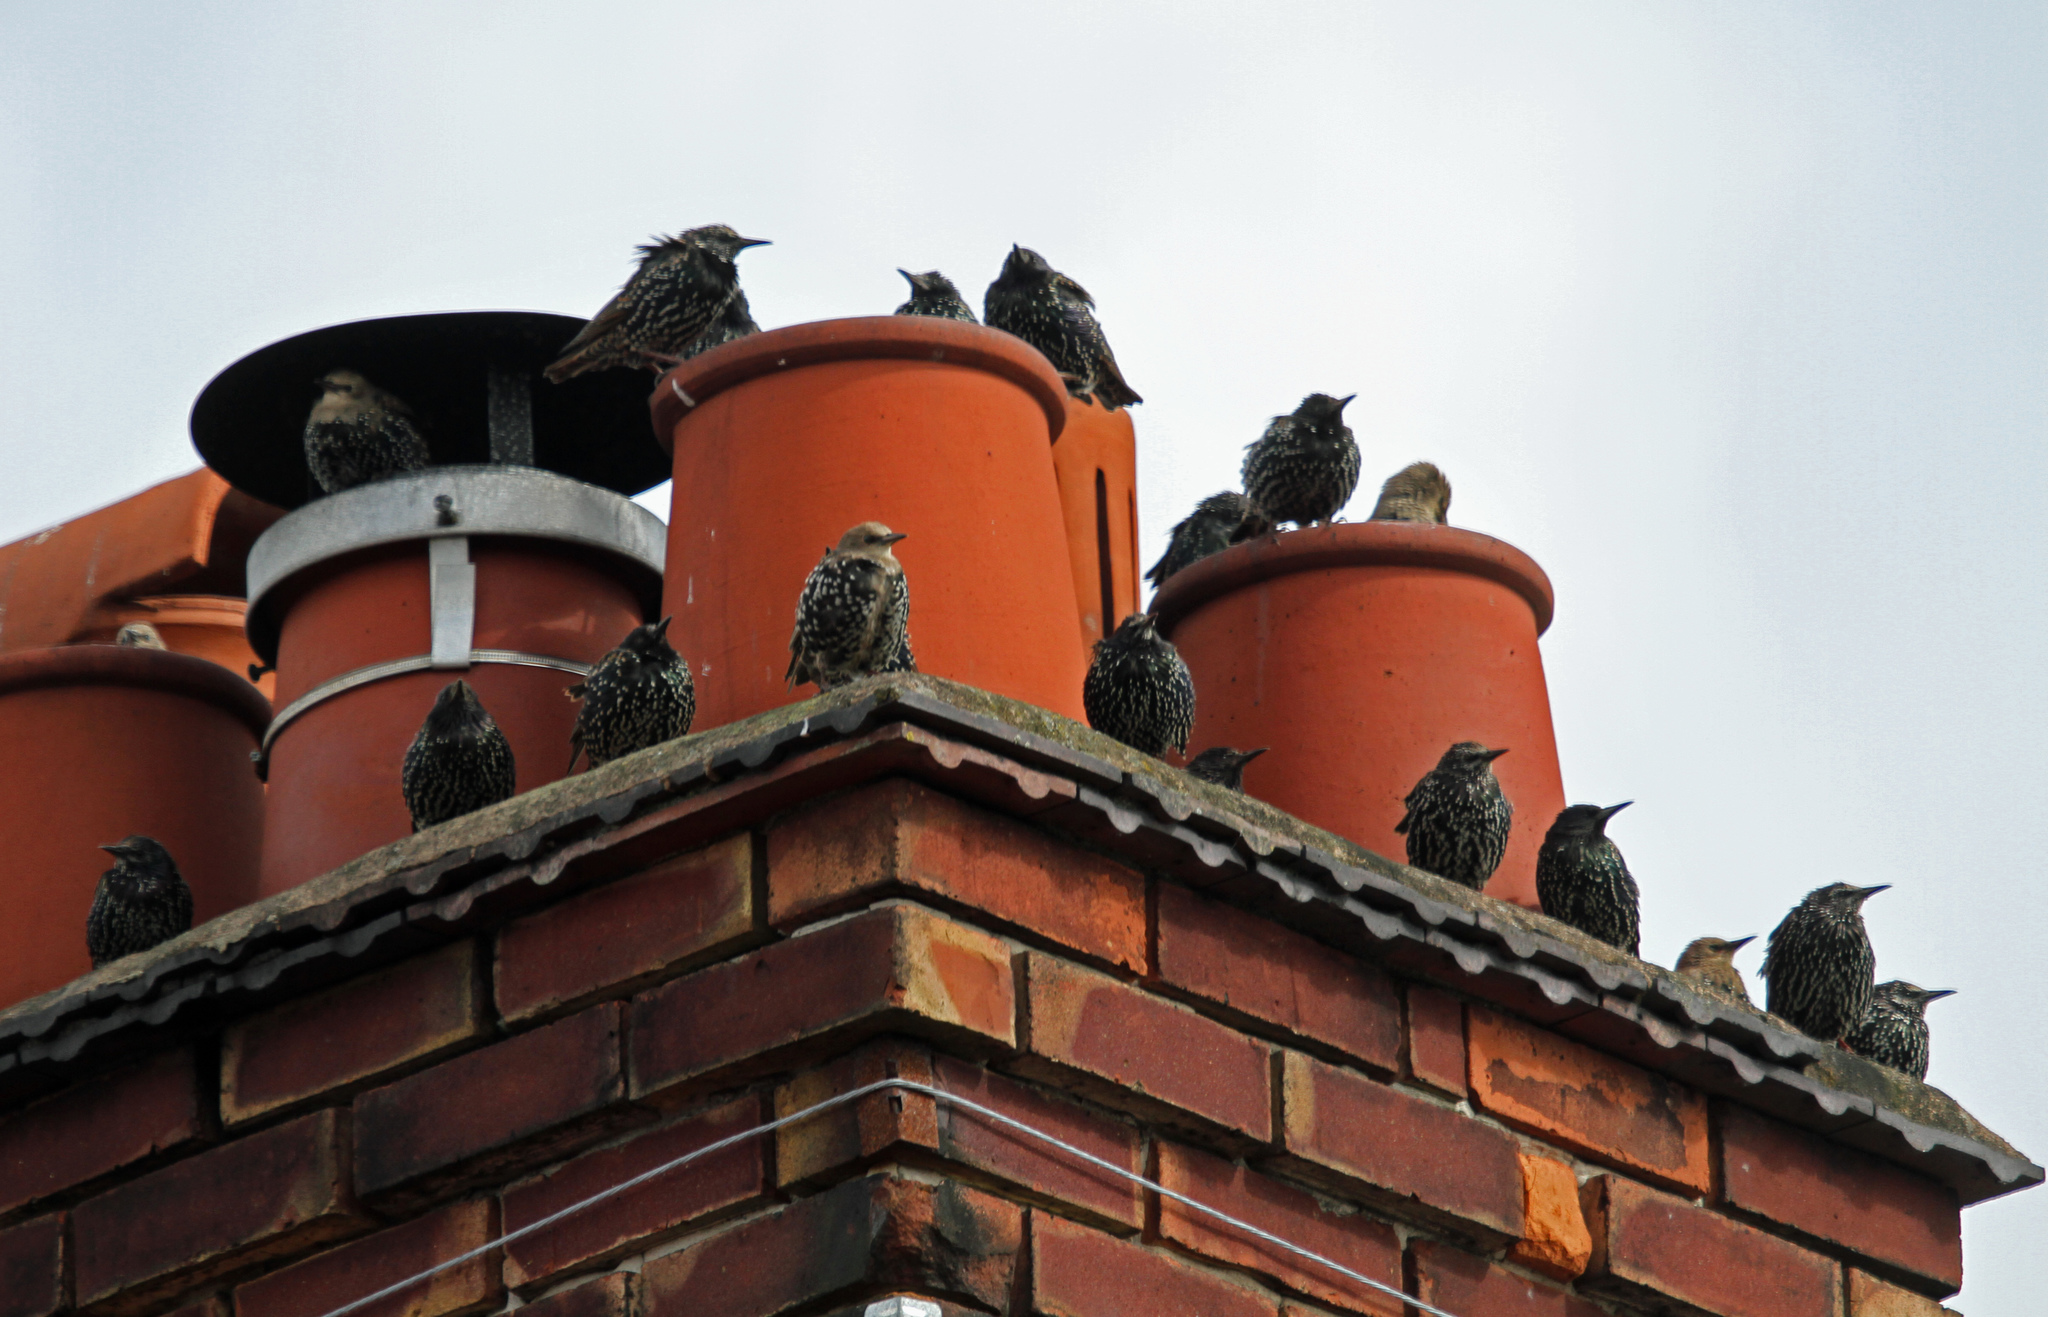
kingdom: Animalia
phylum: Chordata
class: Aves
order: Passeriformes
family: Sturnidae
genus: Sturnus
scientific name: Sturnus vulgaris
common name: Common starling
